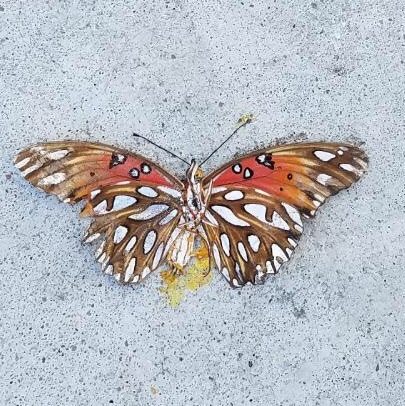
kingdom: Animalia
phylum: Arthropoda
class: Insecta
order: Lepidoptera
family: Nymphalidae
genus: Dione
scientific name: Dione vanillae
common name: Gulf fritillary
